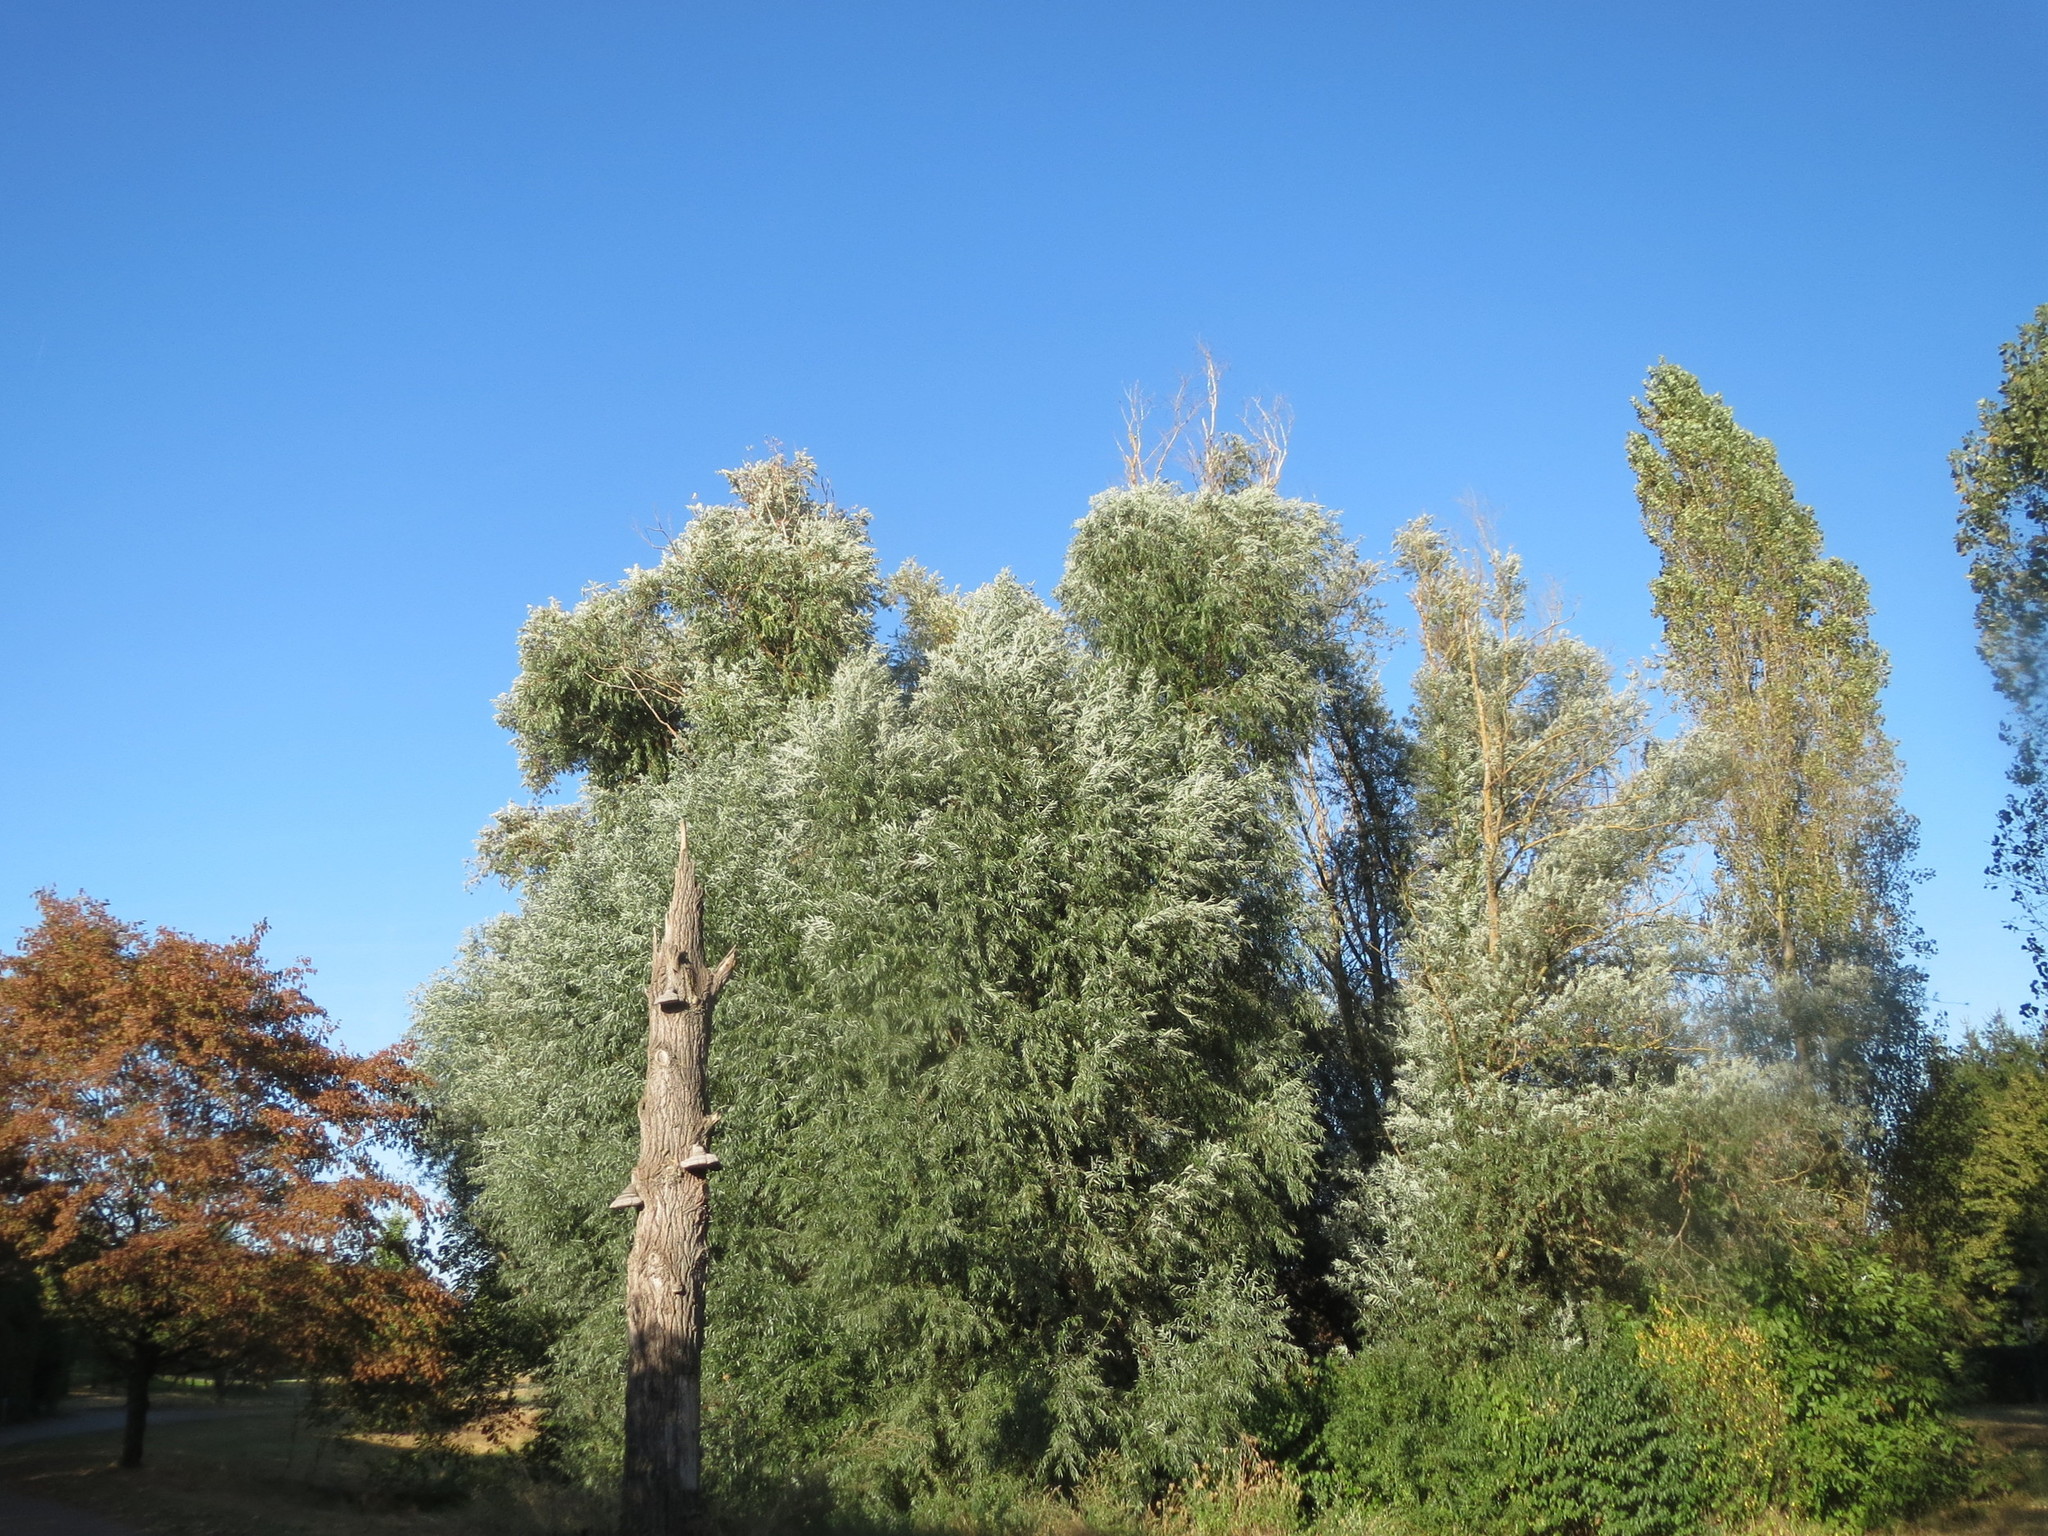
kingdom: Plantae
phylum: Tracheophyta
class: Magnoliopsida
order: Malpighiales
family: Salicaceae
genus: Salix
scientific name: Salix alba
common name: White willow
